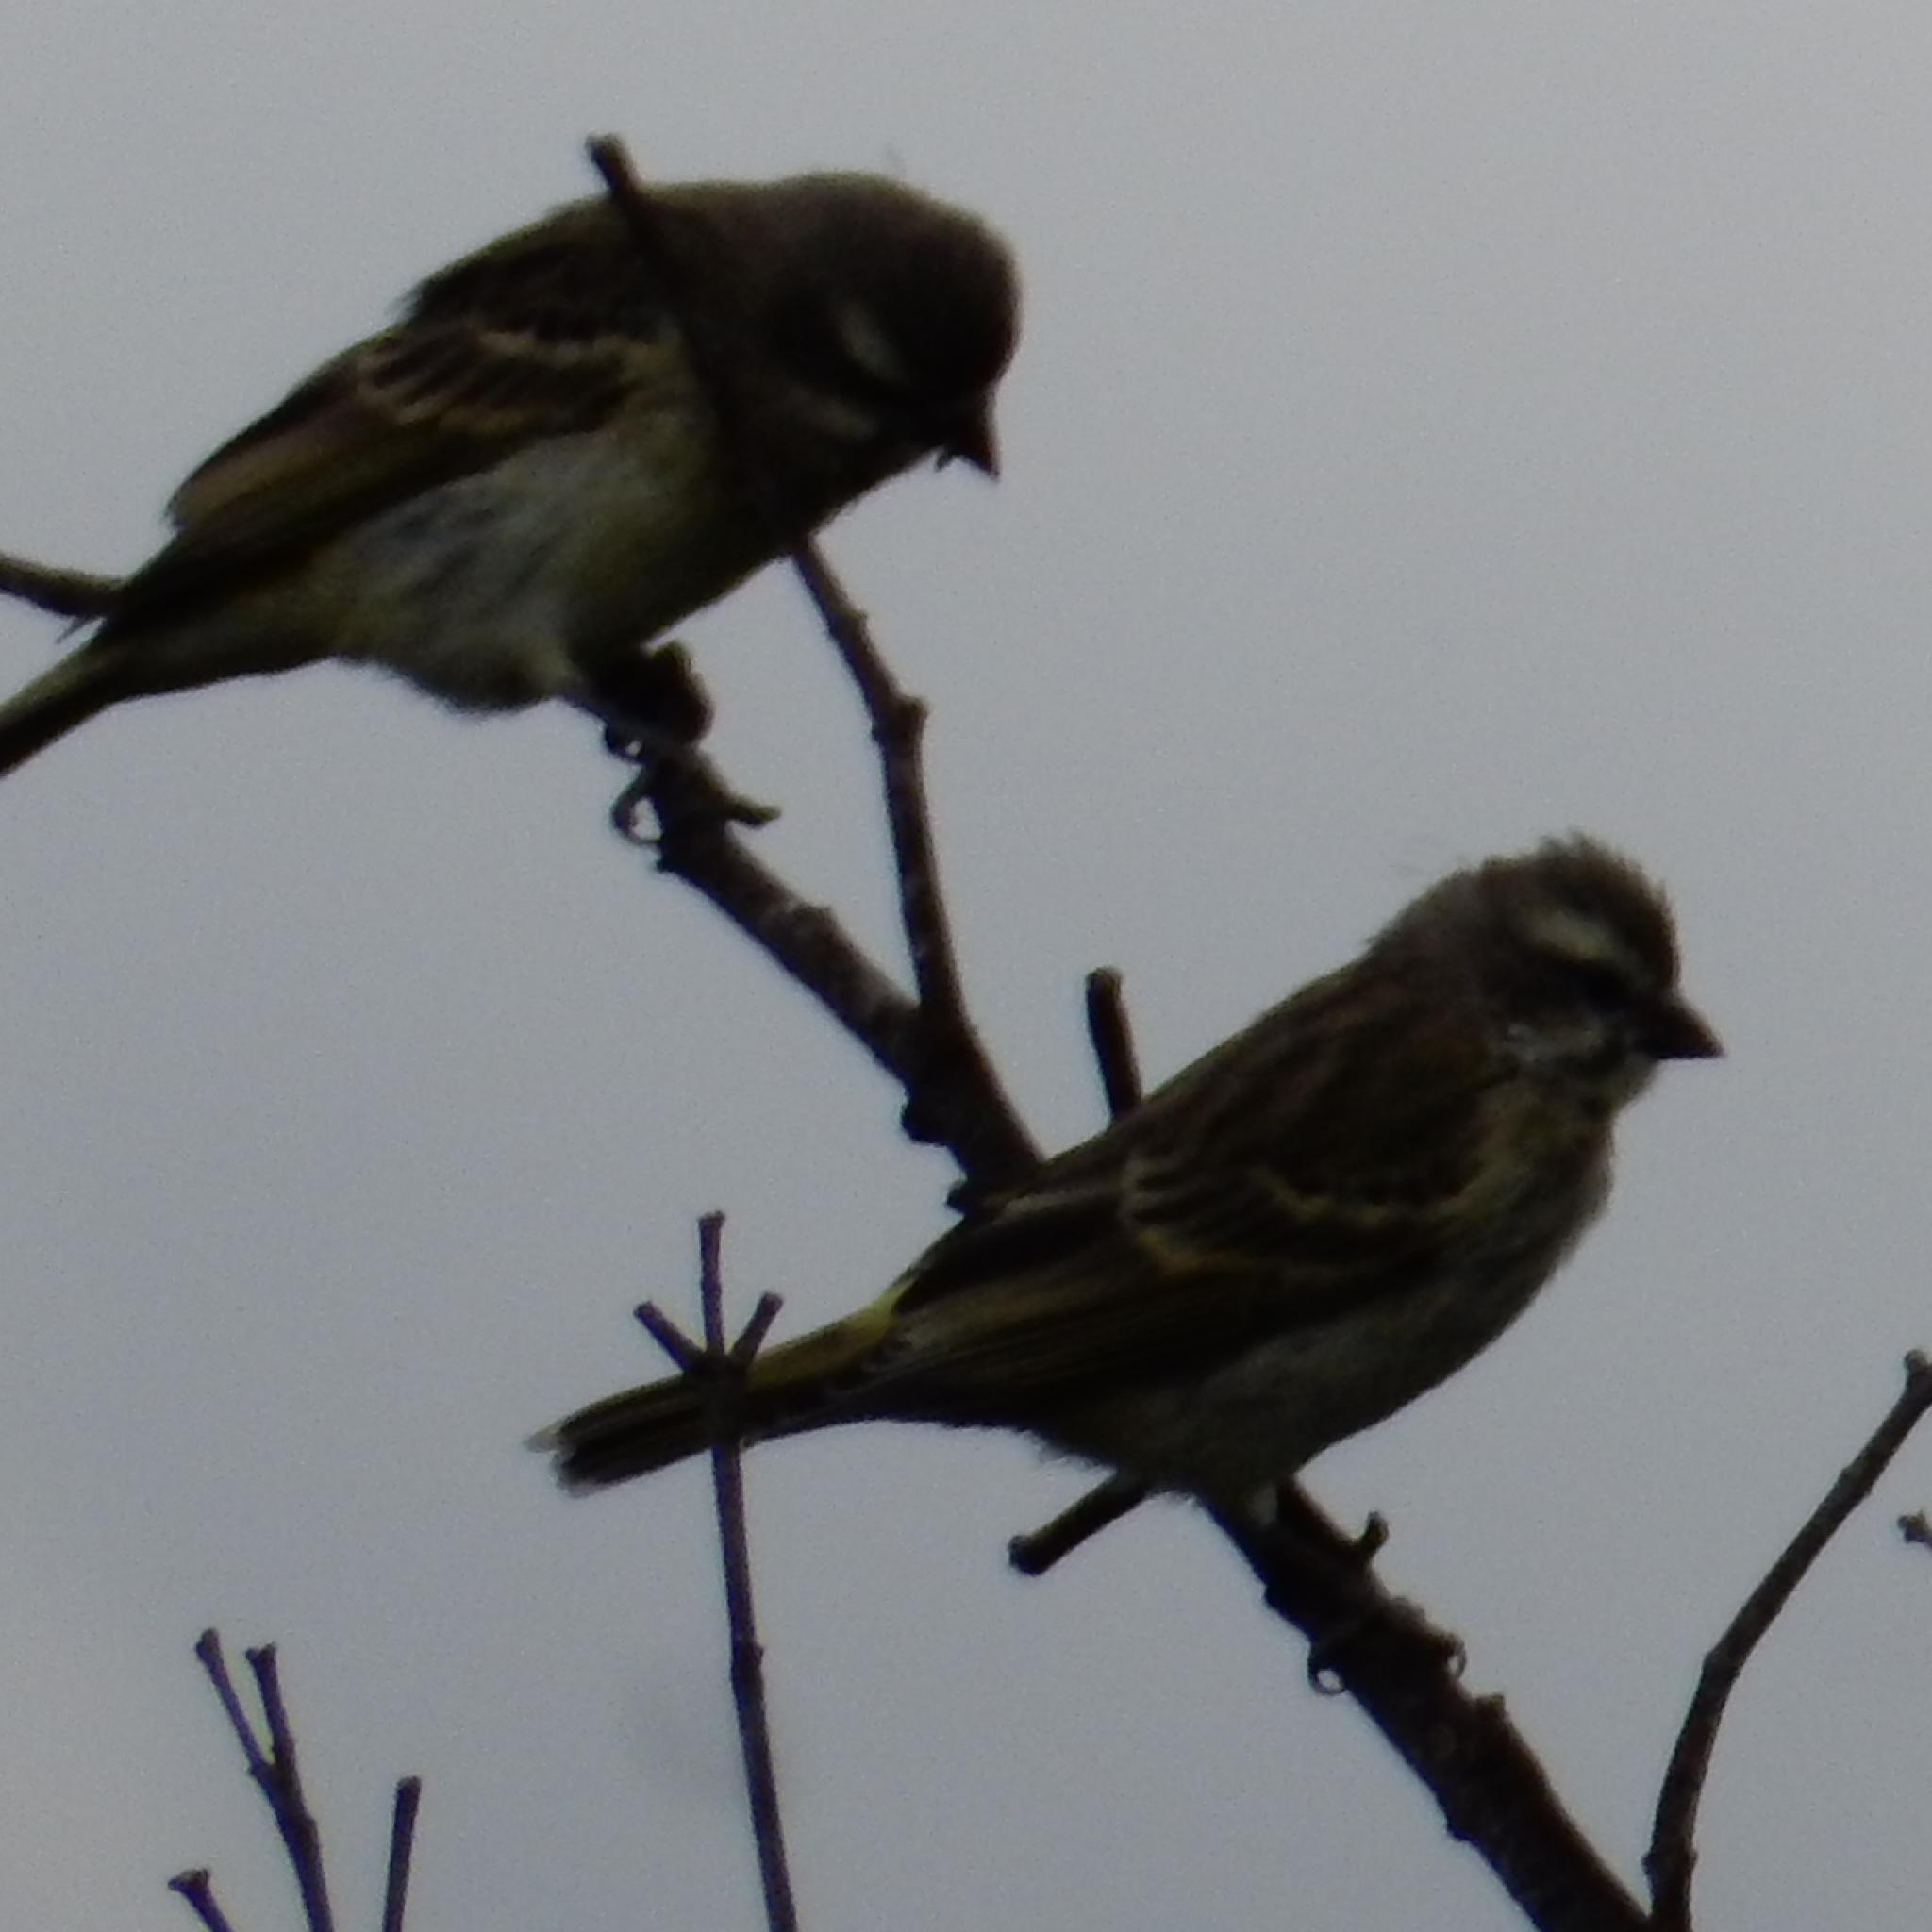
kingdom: Animalia
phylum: Chordata
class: Aves
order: Passeriformes
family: Fringillidae
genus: Crithagra
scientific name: Crithagra mozambica
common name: Yellow-fronted canary
